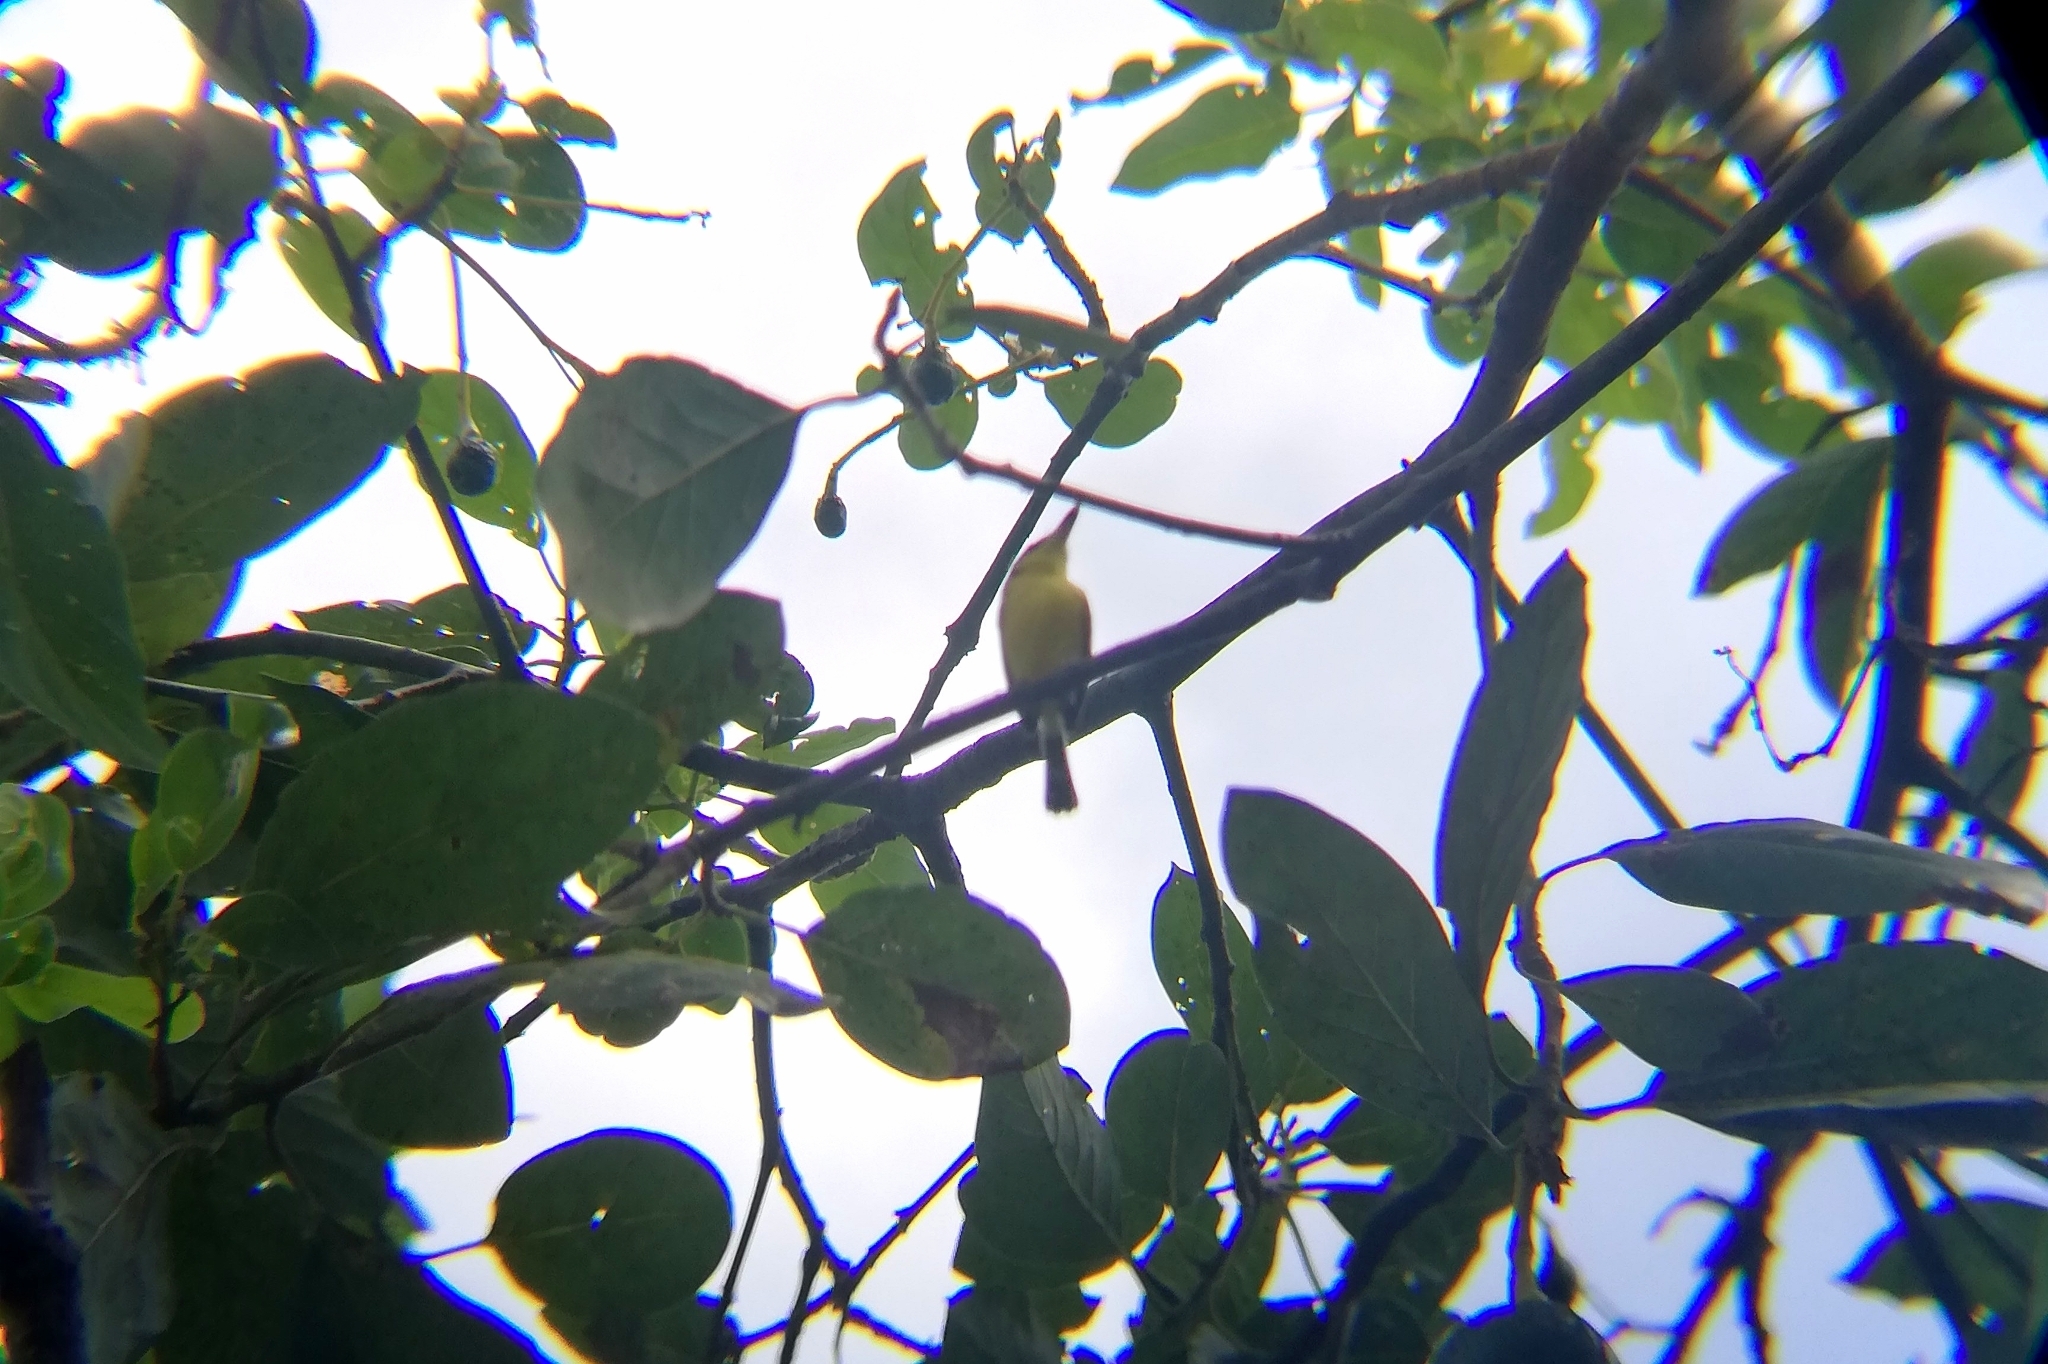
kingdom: Animalia
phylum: Chordata
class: Aves
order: Passeriformes
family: Tyrannidae
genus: Todirostrum
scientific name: Todirostrum cinereum
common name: Common tody-flycatcher
